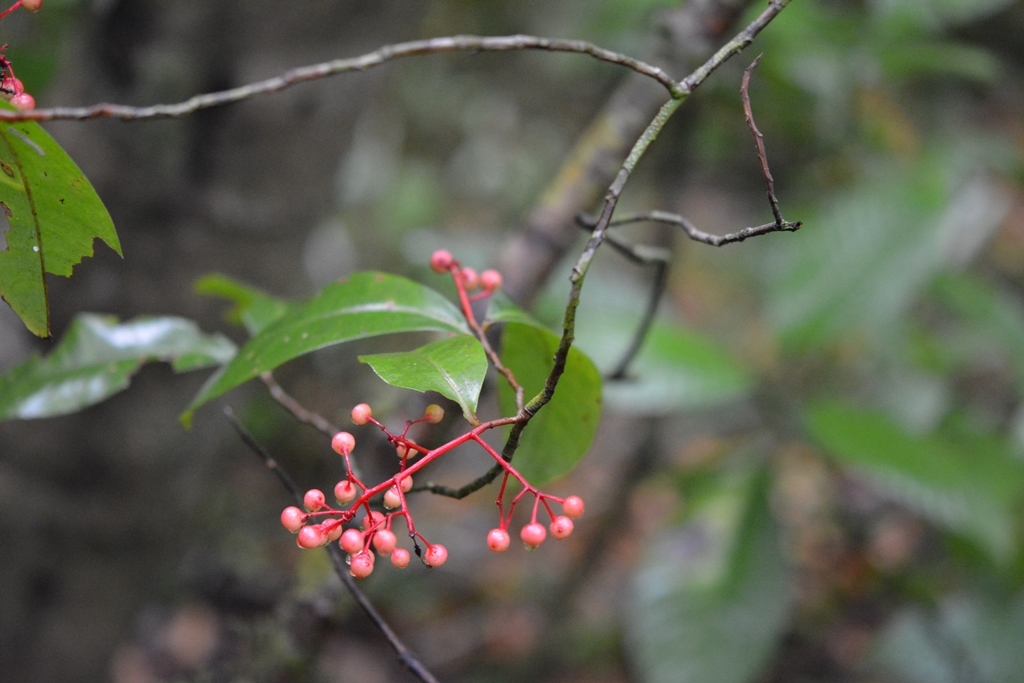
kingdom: Plantae
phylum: Tracheophyta
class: Magnoliopsida
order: Ericales
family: Primulaceae
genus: Gentlea
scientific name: Gentlea micranthera
